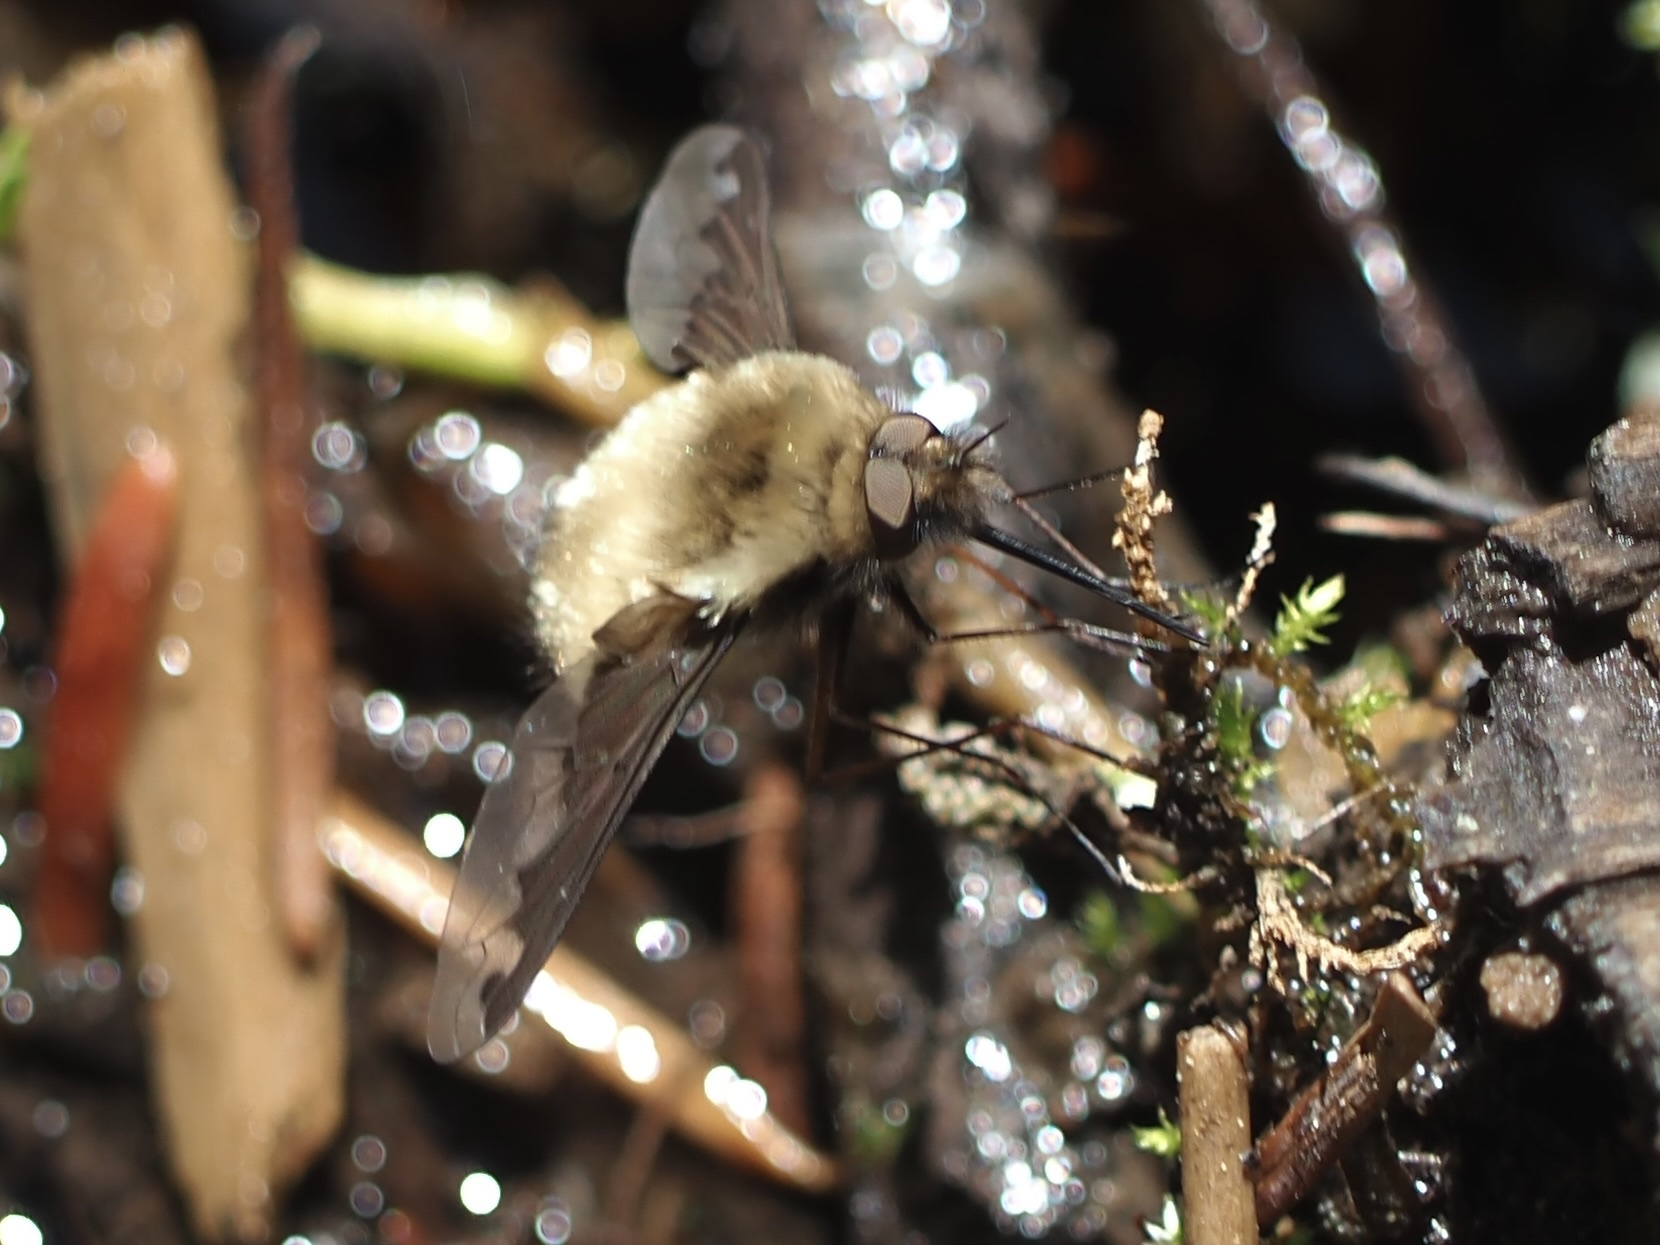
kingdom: Animalia
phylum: Arthropoda
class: Insecta
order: Diptera
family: Bombyliidae
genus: Bombylius
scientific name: Bombylius major
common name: Bee fly
